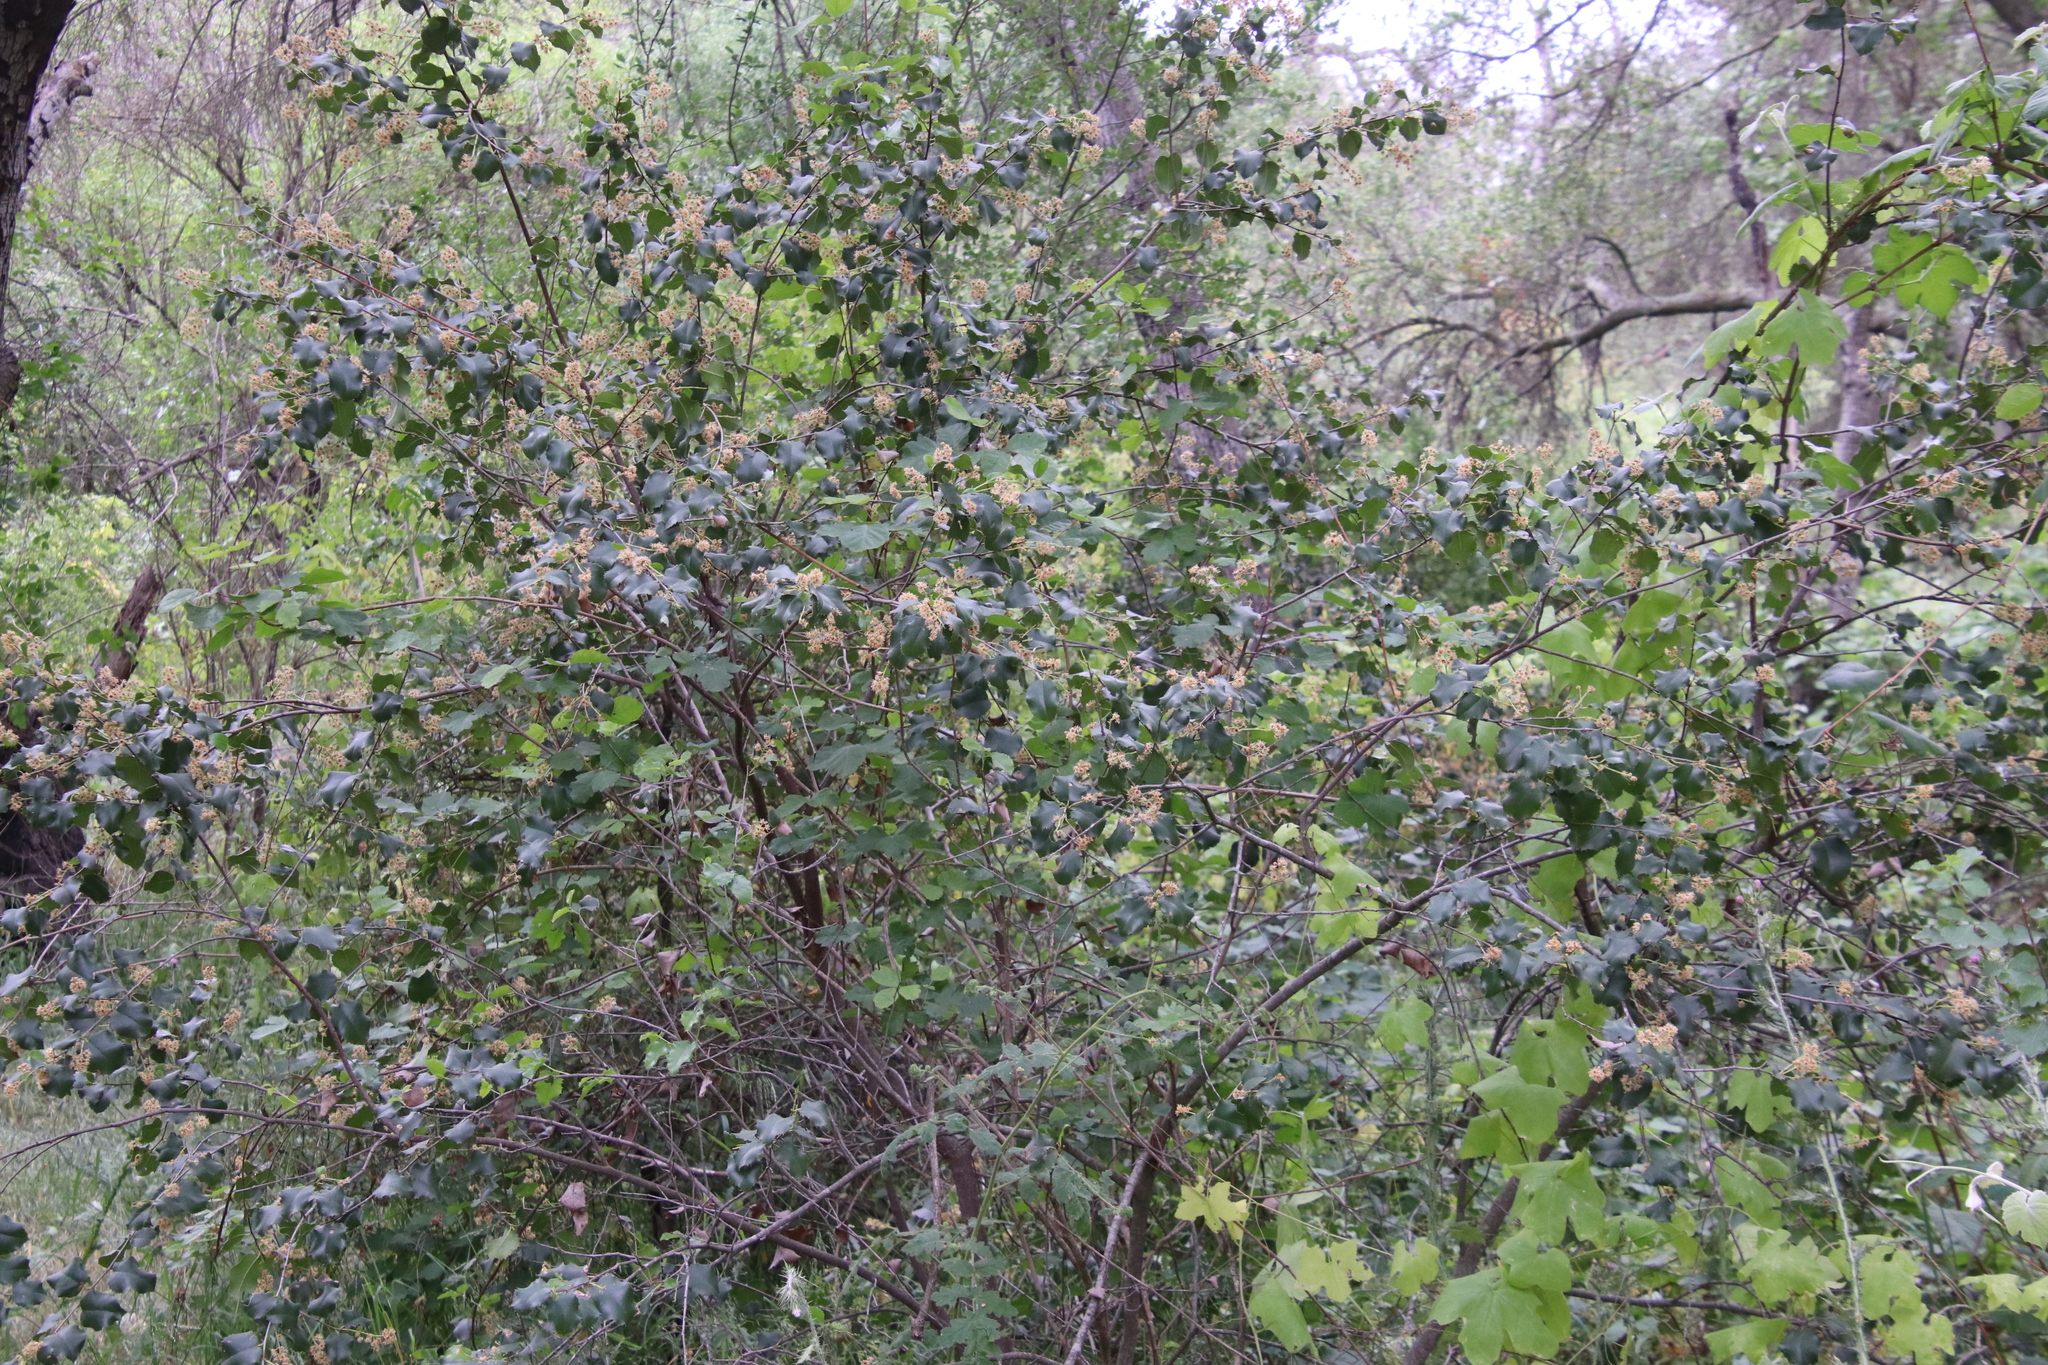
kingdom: Plantae
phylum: Tracheophyta
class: Magnoliopsida
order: Rosales
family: Rosaceae
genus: Prunus
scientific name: Prunus ilicifolia
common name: Hollyleaf cherry
